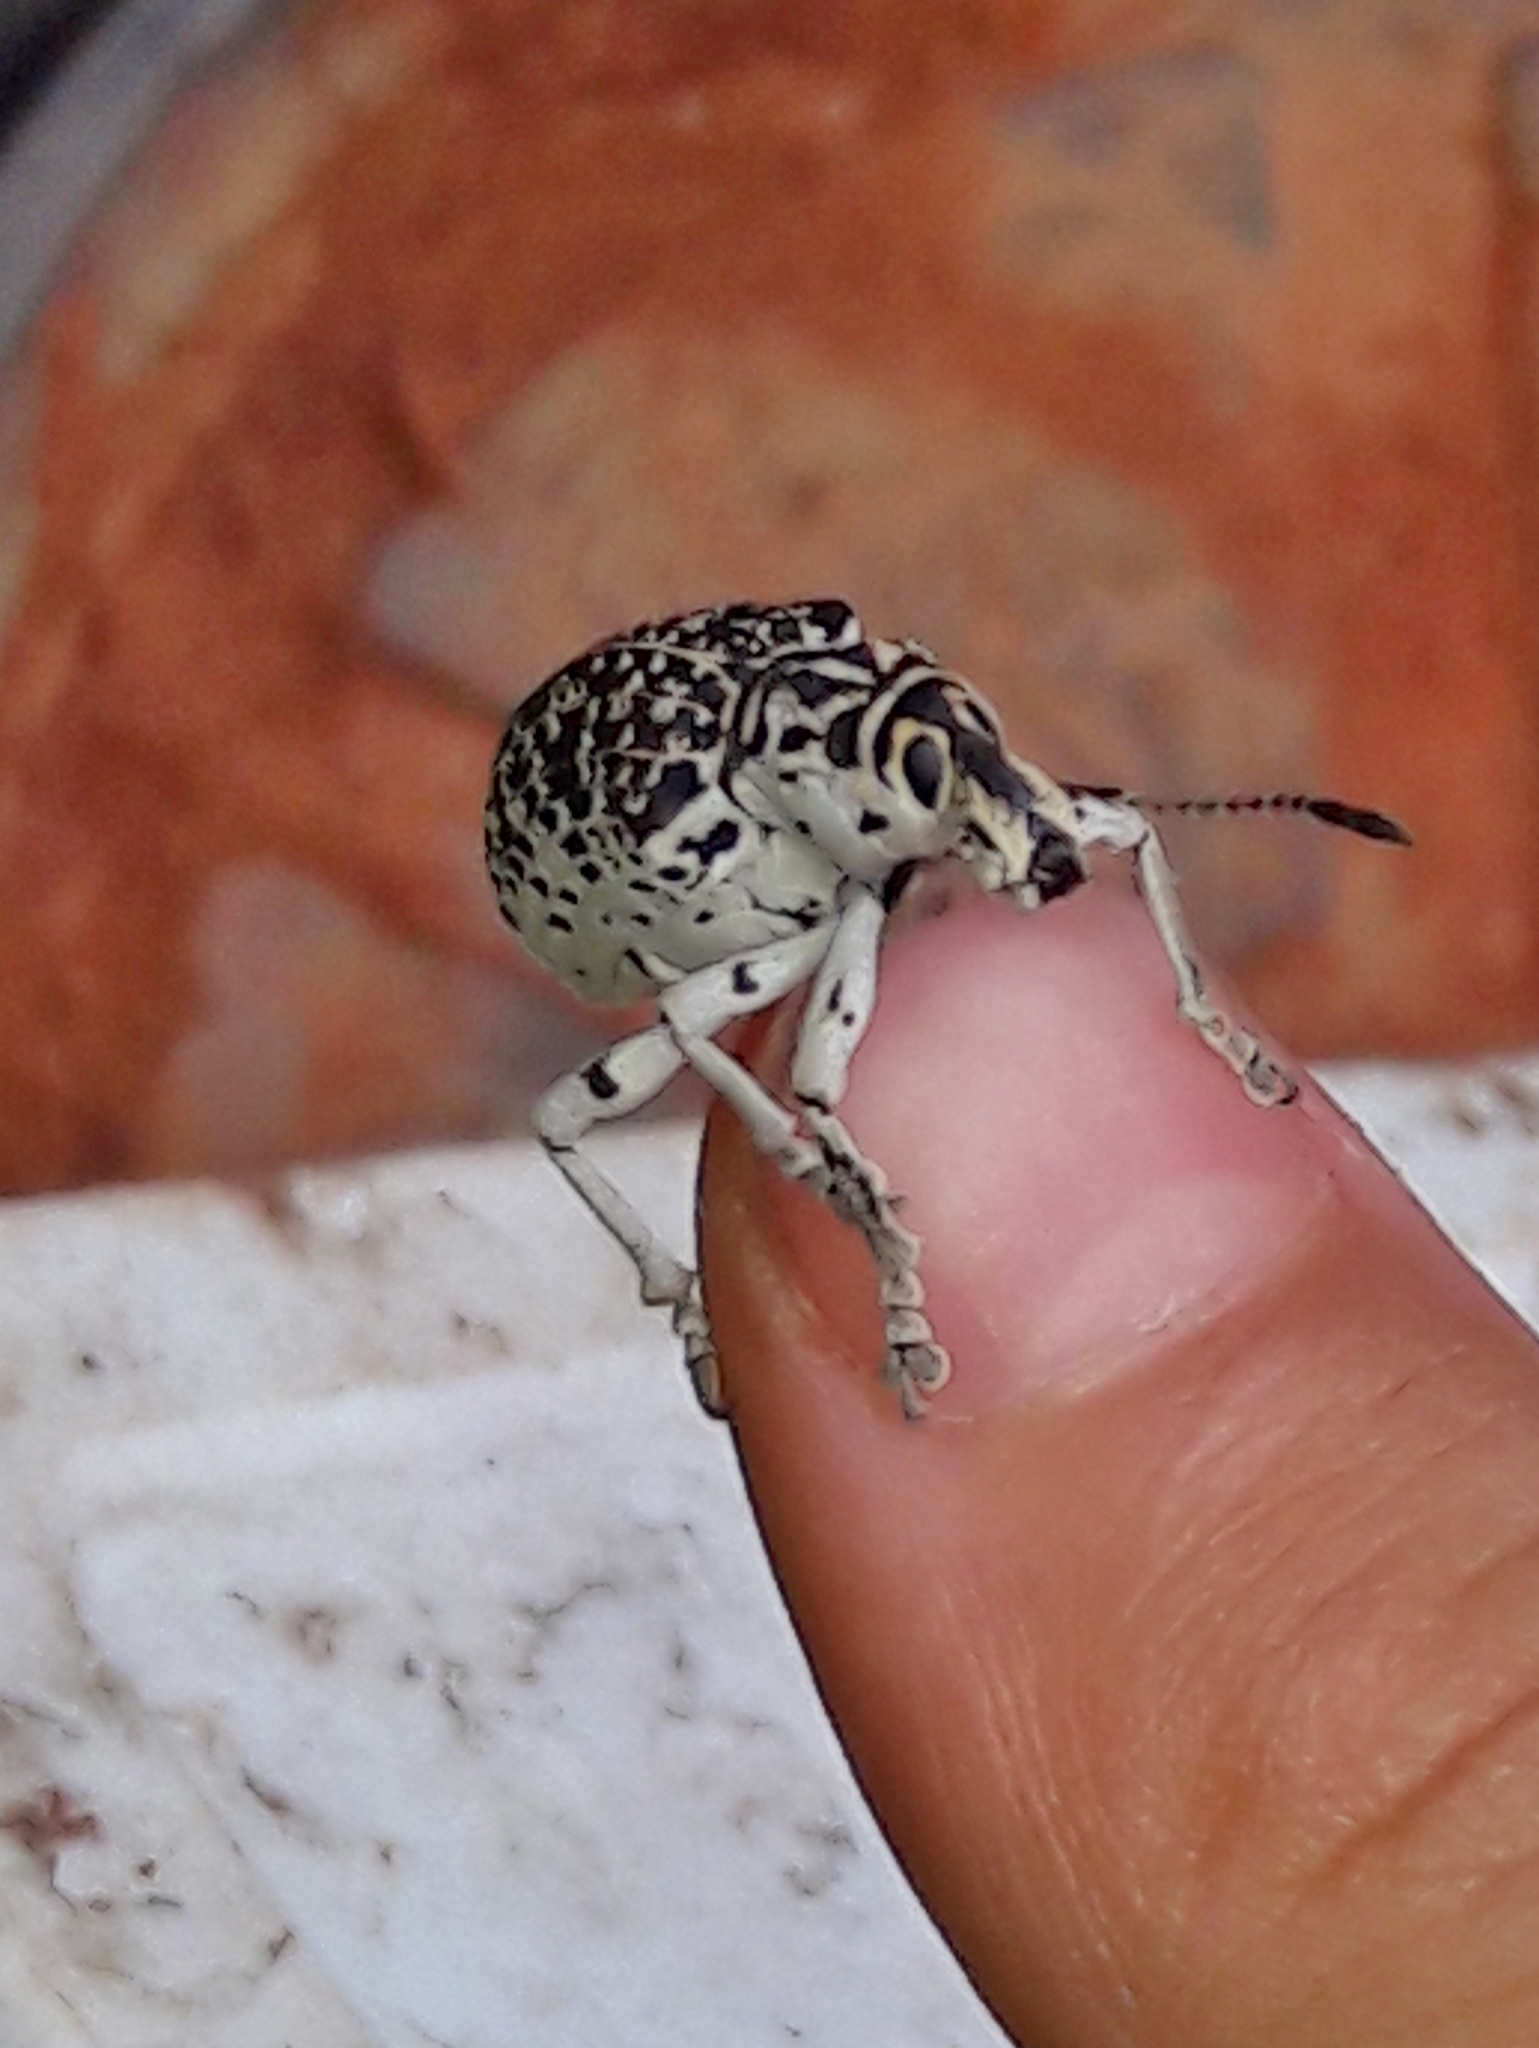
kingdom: Animalia
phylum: Arthropoda
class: Insecta
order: Coleoptera
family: Curculionidae
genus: Cydianerus
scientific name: Cydianerus latruncularius
